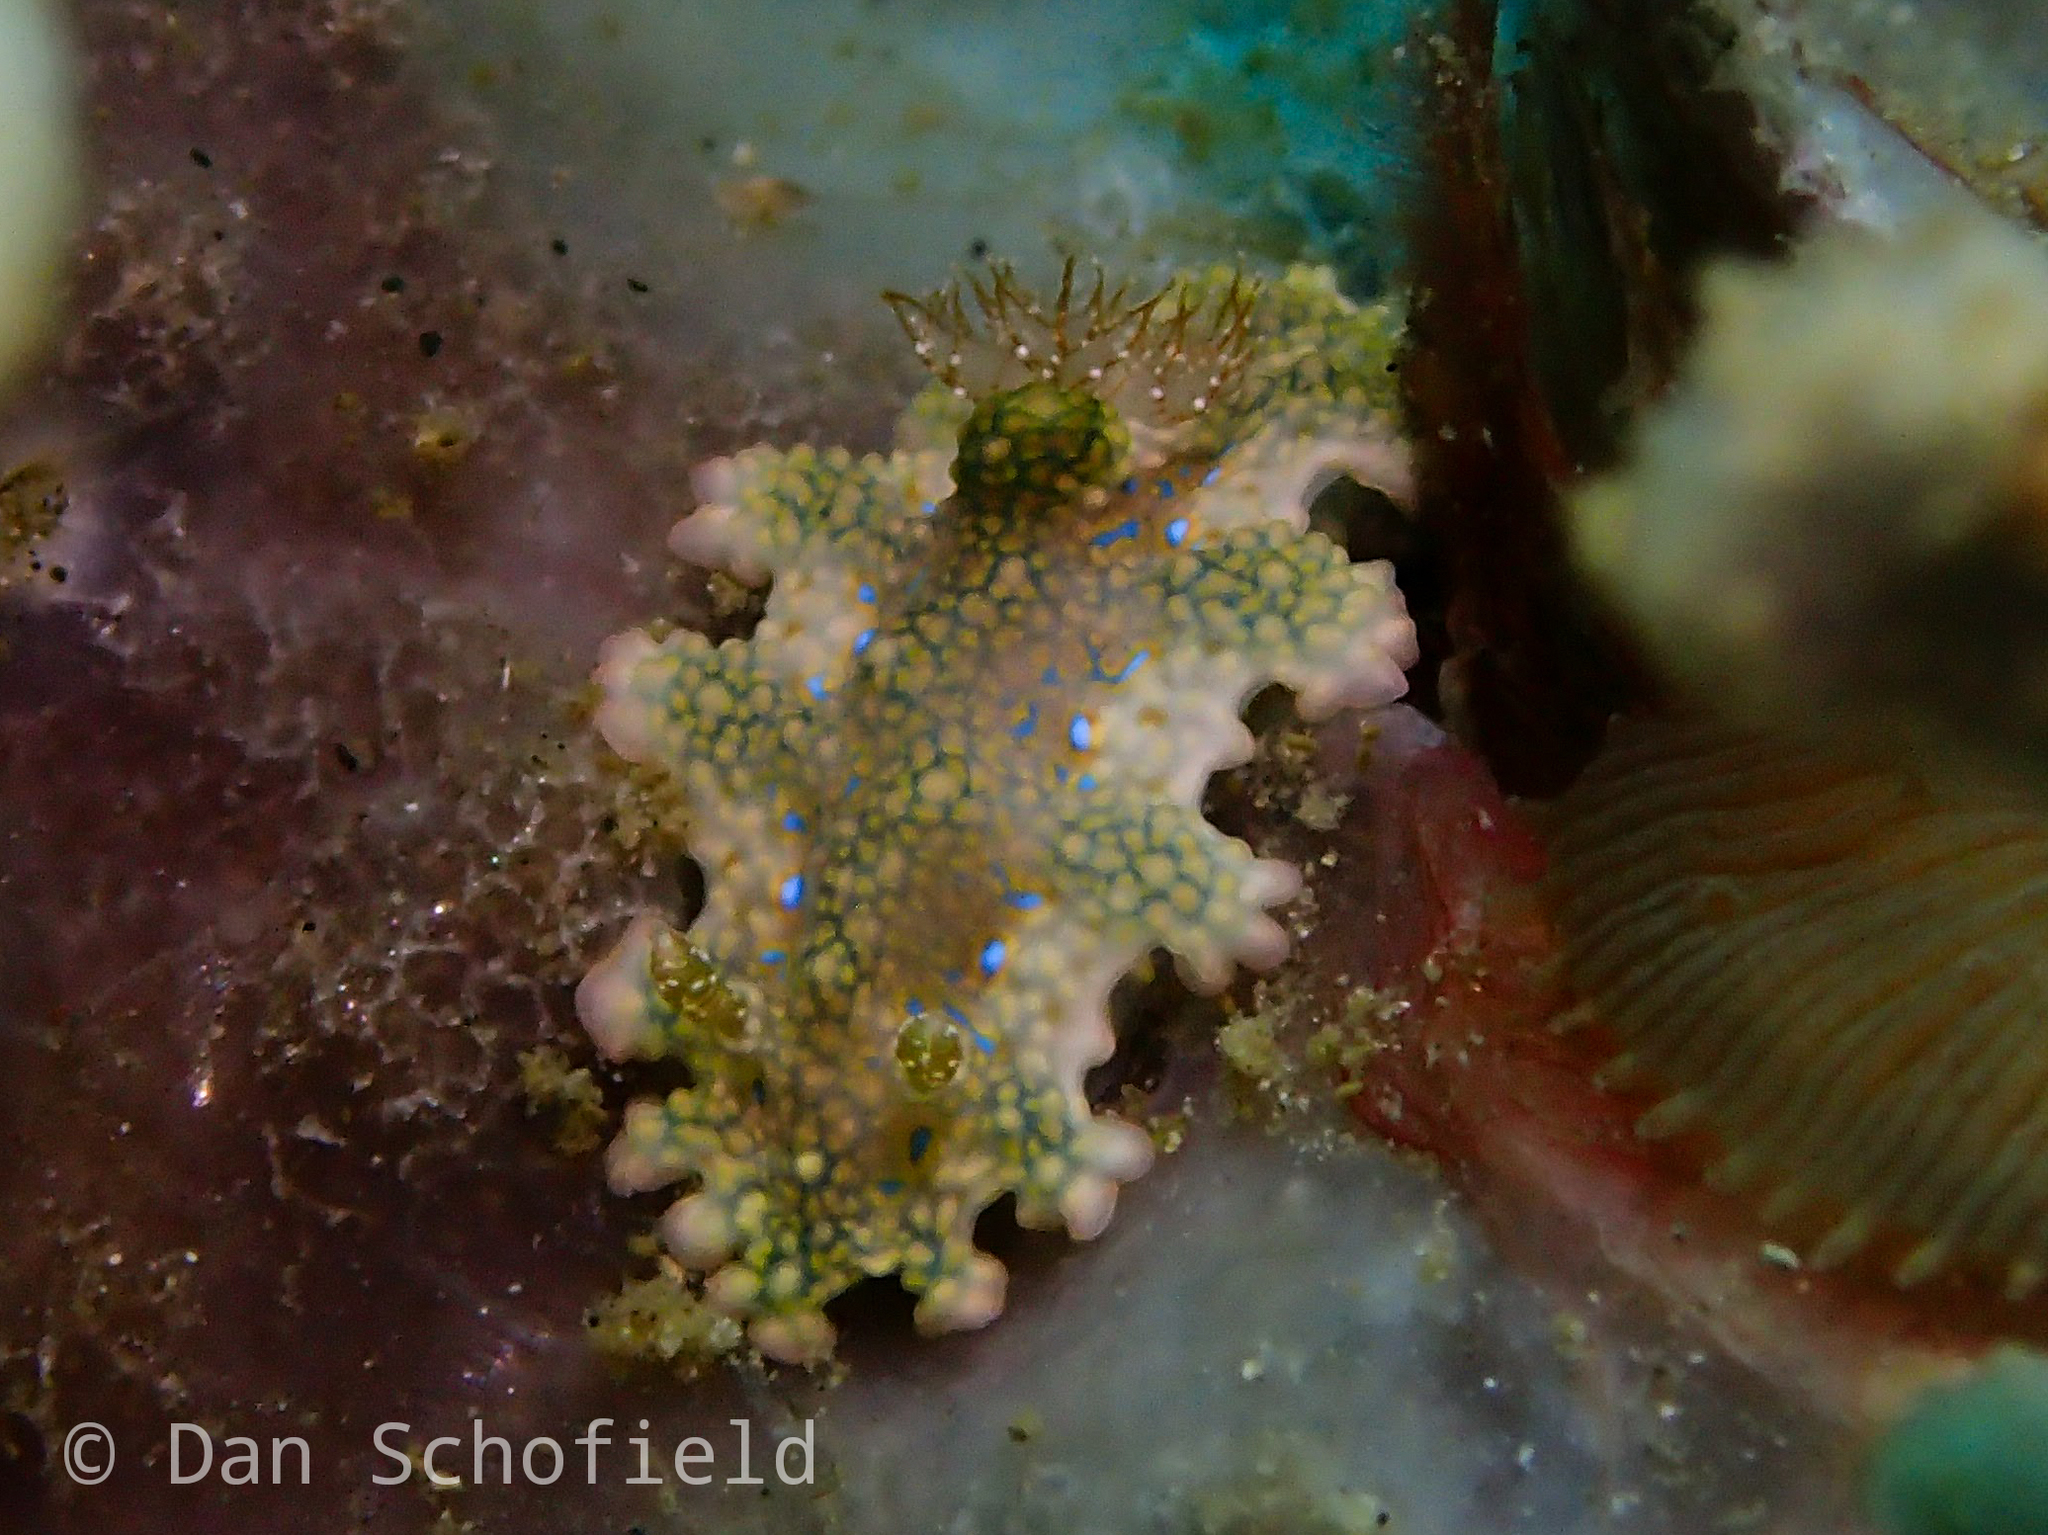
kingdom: Animalia
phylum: Mollusca
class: Gastropoda
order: Nudibranchia
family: Chromodorididae
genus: Miamira
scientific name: Miamira sinuata
